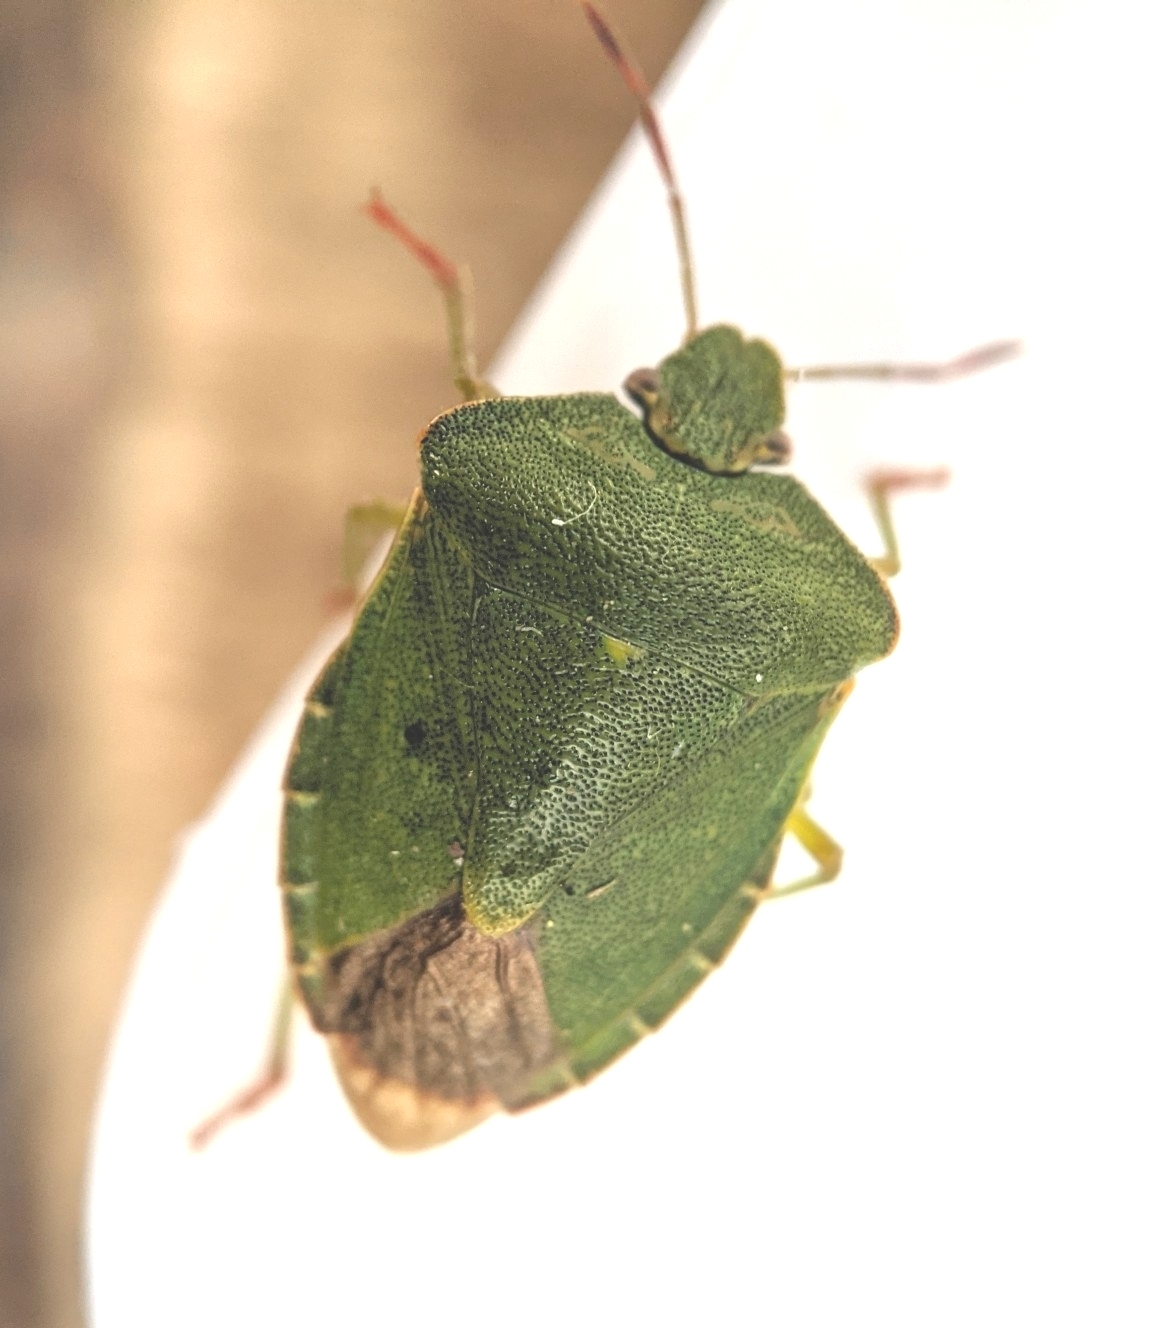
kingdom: Animalia
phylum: Arthropoda
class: Insecta
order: Hemiptera
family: Pentatomidae
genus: Palomena
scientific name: Palomena prasina
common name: Green shieldbug
